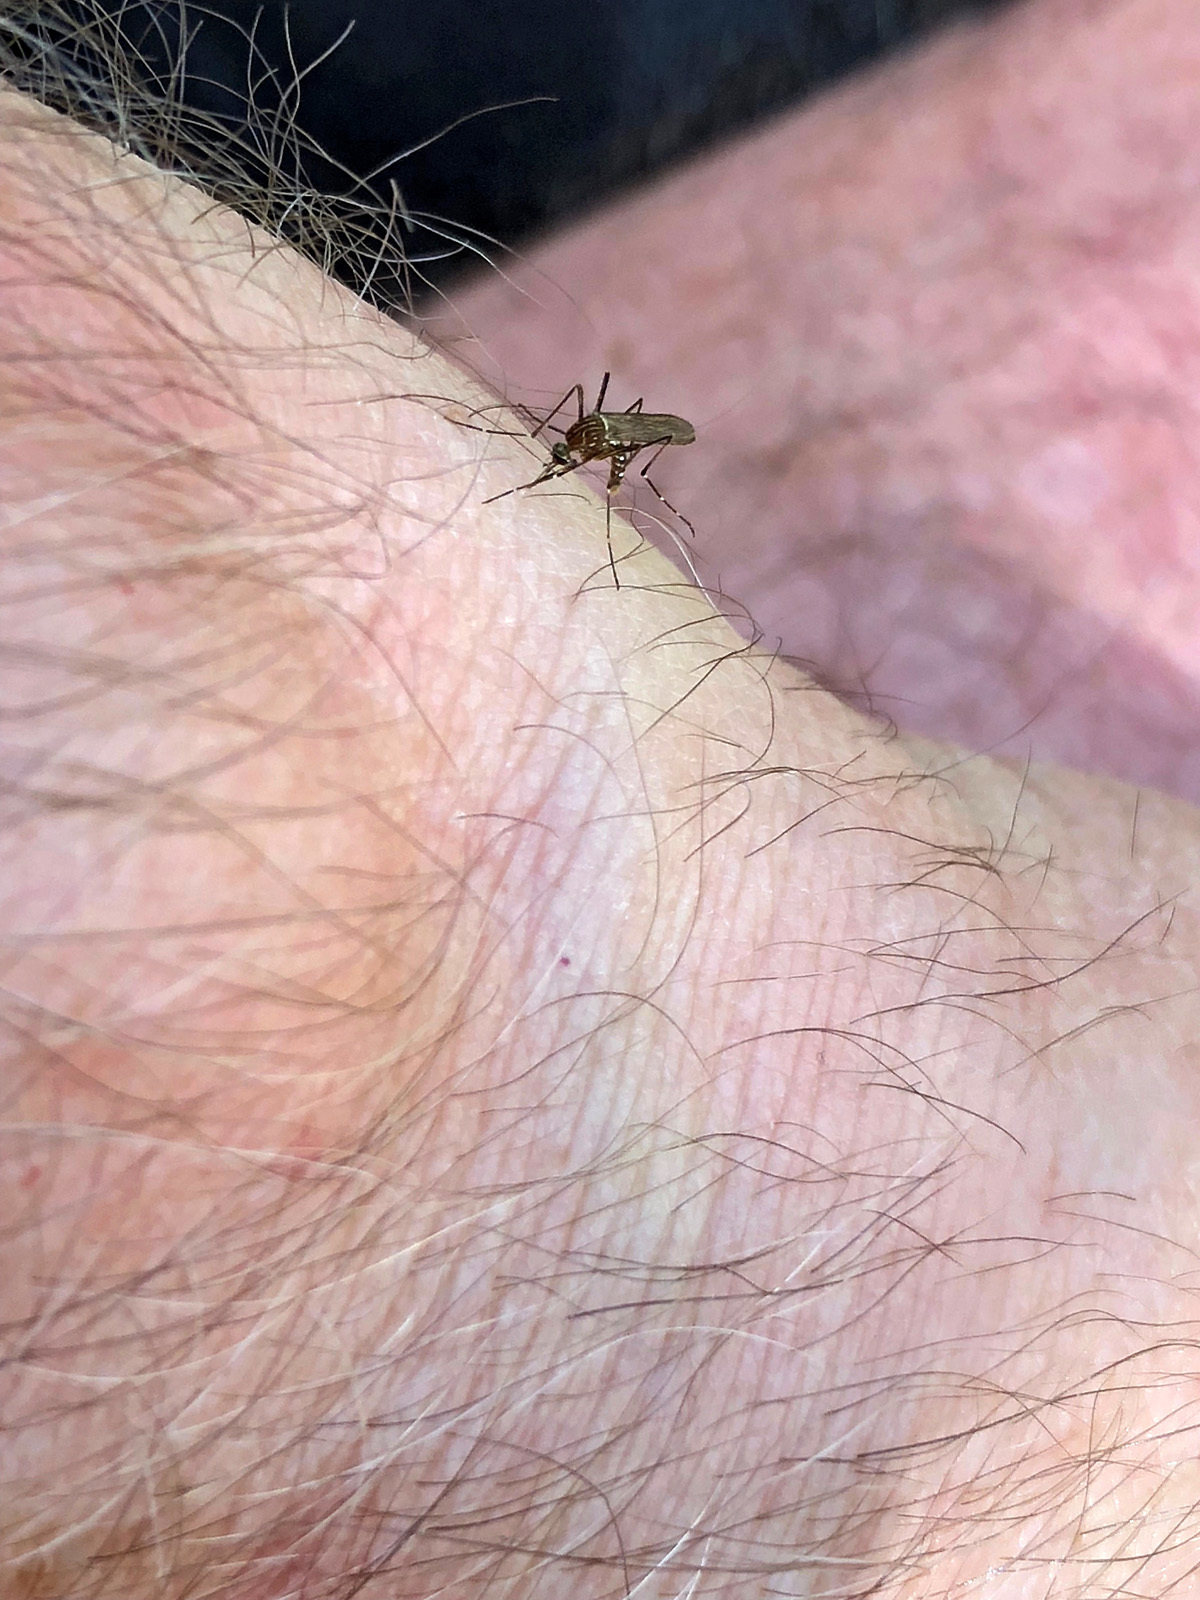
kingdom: Animalia
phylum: Arthropoda
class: Insecta
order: Diptera
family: Culicidae
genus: Aedes
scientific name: Aedes notoscriptus
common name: Australian backyard mosquito
